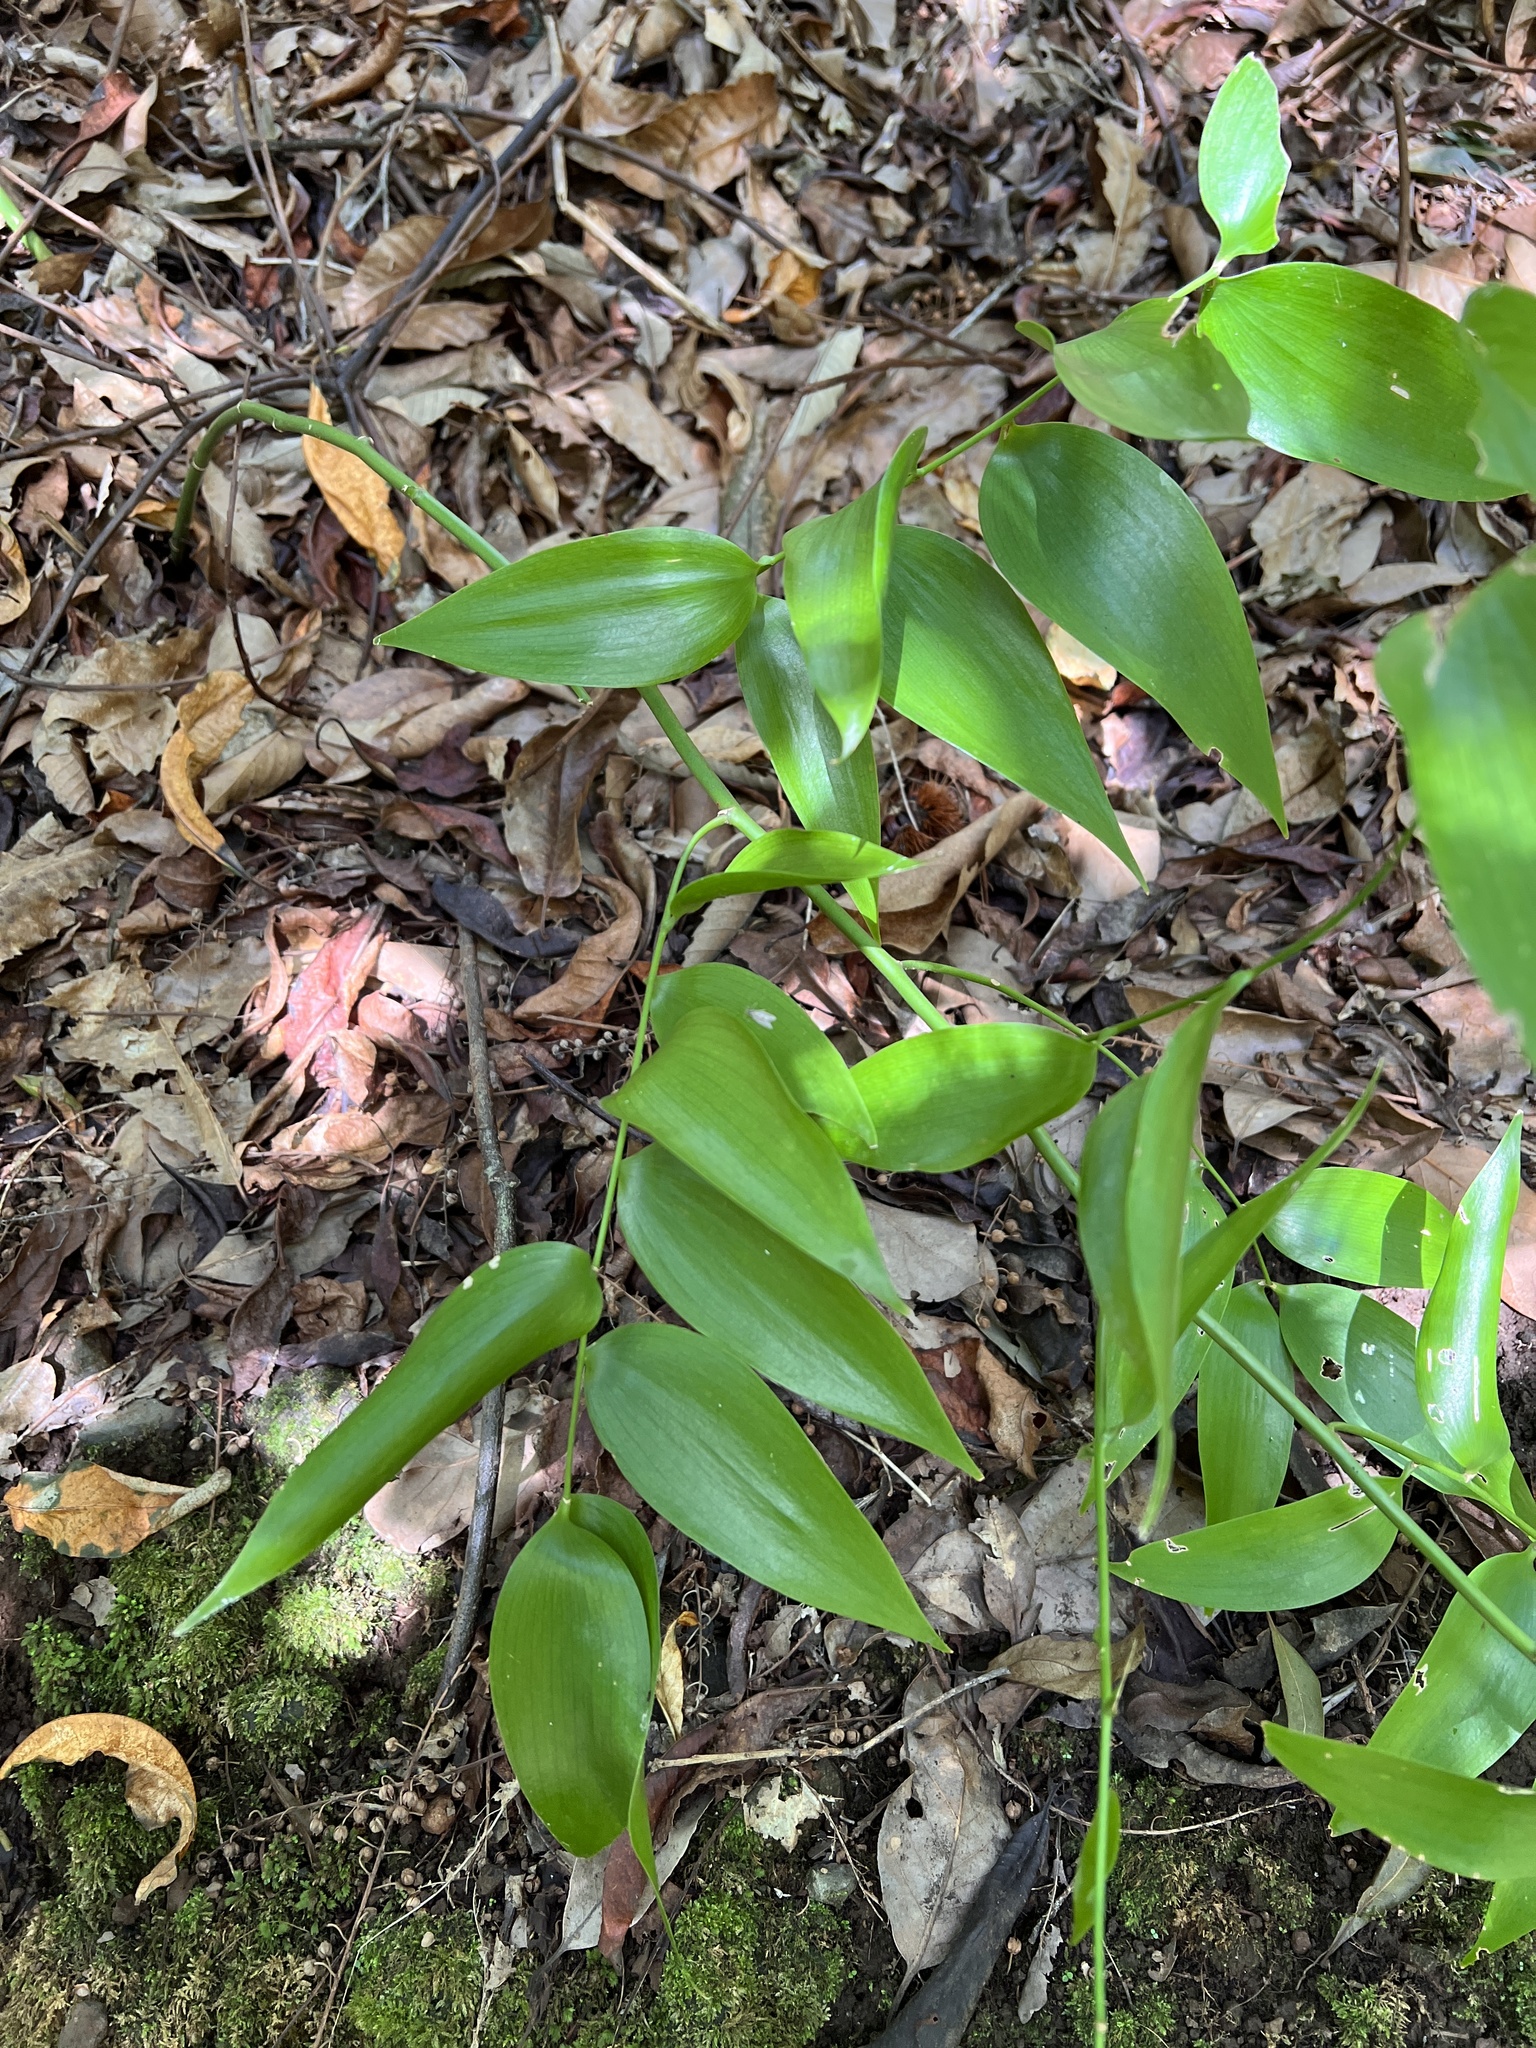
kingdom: Plantae
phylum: Tracheophyta
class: Liliopsida
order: Asparagales
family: Asparagaceae
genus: Semele
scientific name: Semele androgyna
